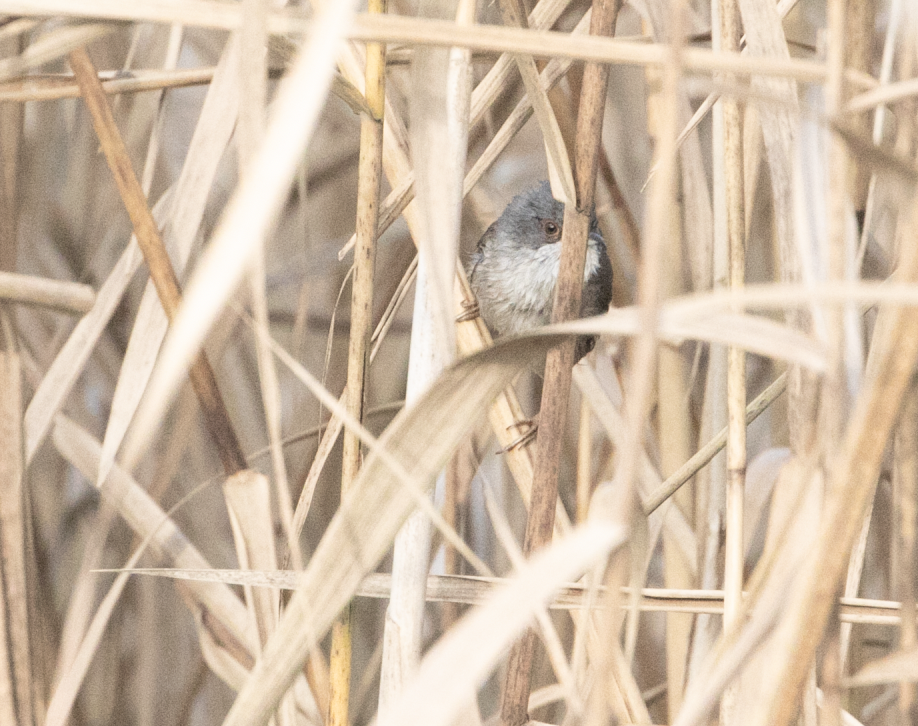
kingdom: Animalia
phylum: Chordata
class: Aves
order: Passeriformes
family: Sylviidae
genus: Curruca
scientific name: Curruca melanocephala
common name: Sardinian warbler
